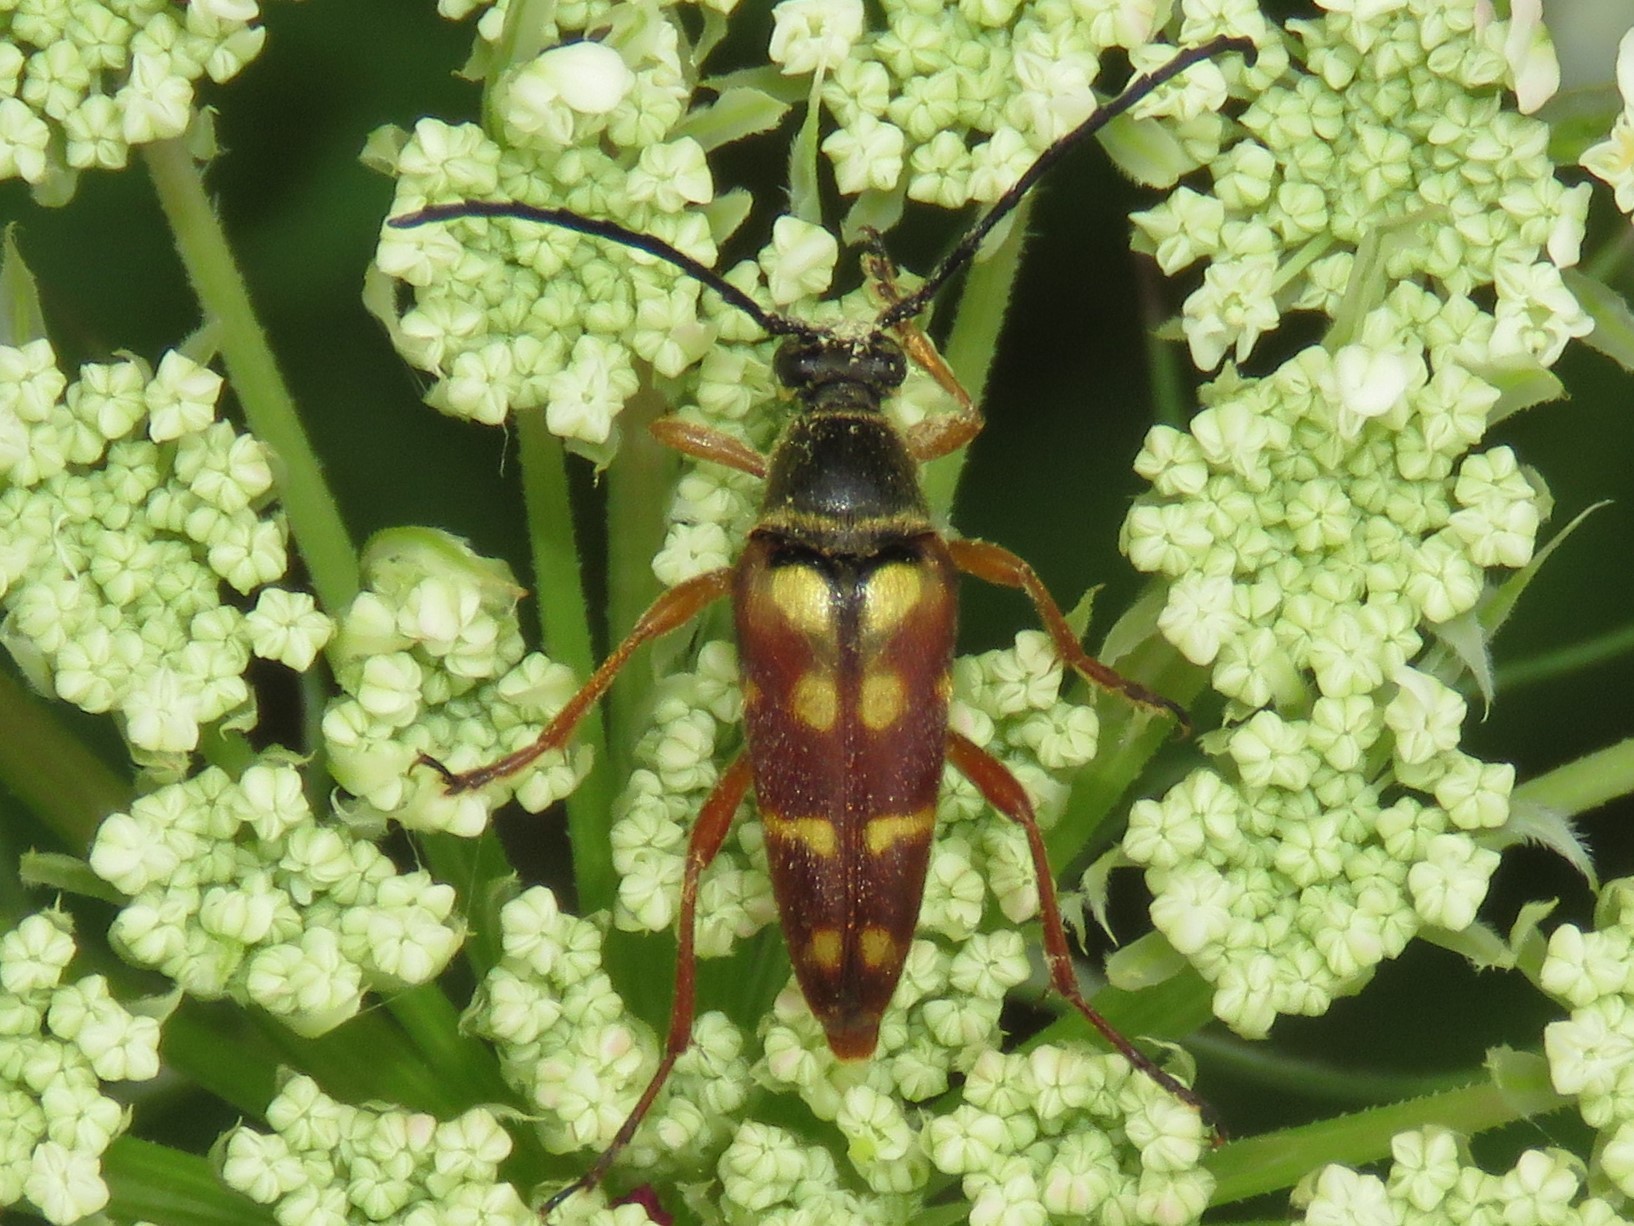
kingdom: Animalia
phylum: Arthropoda
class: Insecta
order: Coleoptera
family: Cerambycidae
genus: Typocerus
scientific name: Typocerus velutinus
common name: Banded longhorn beetle
